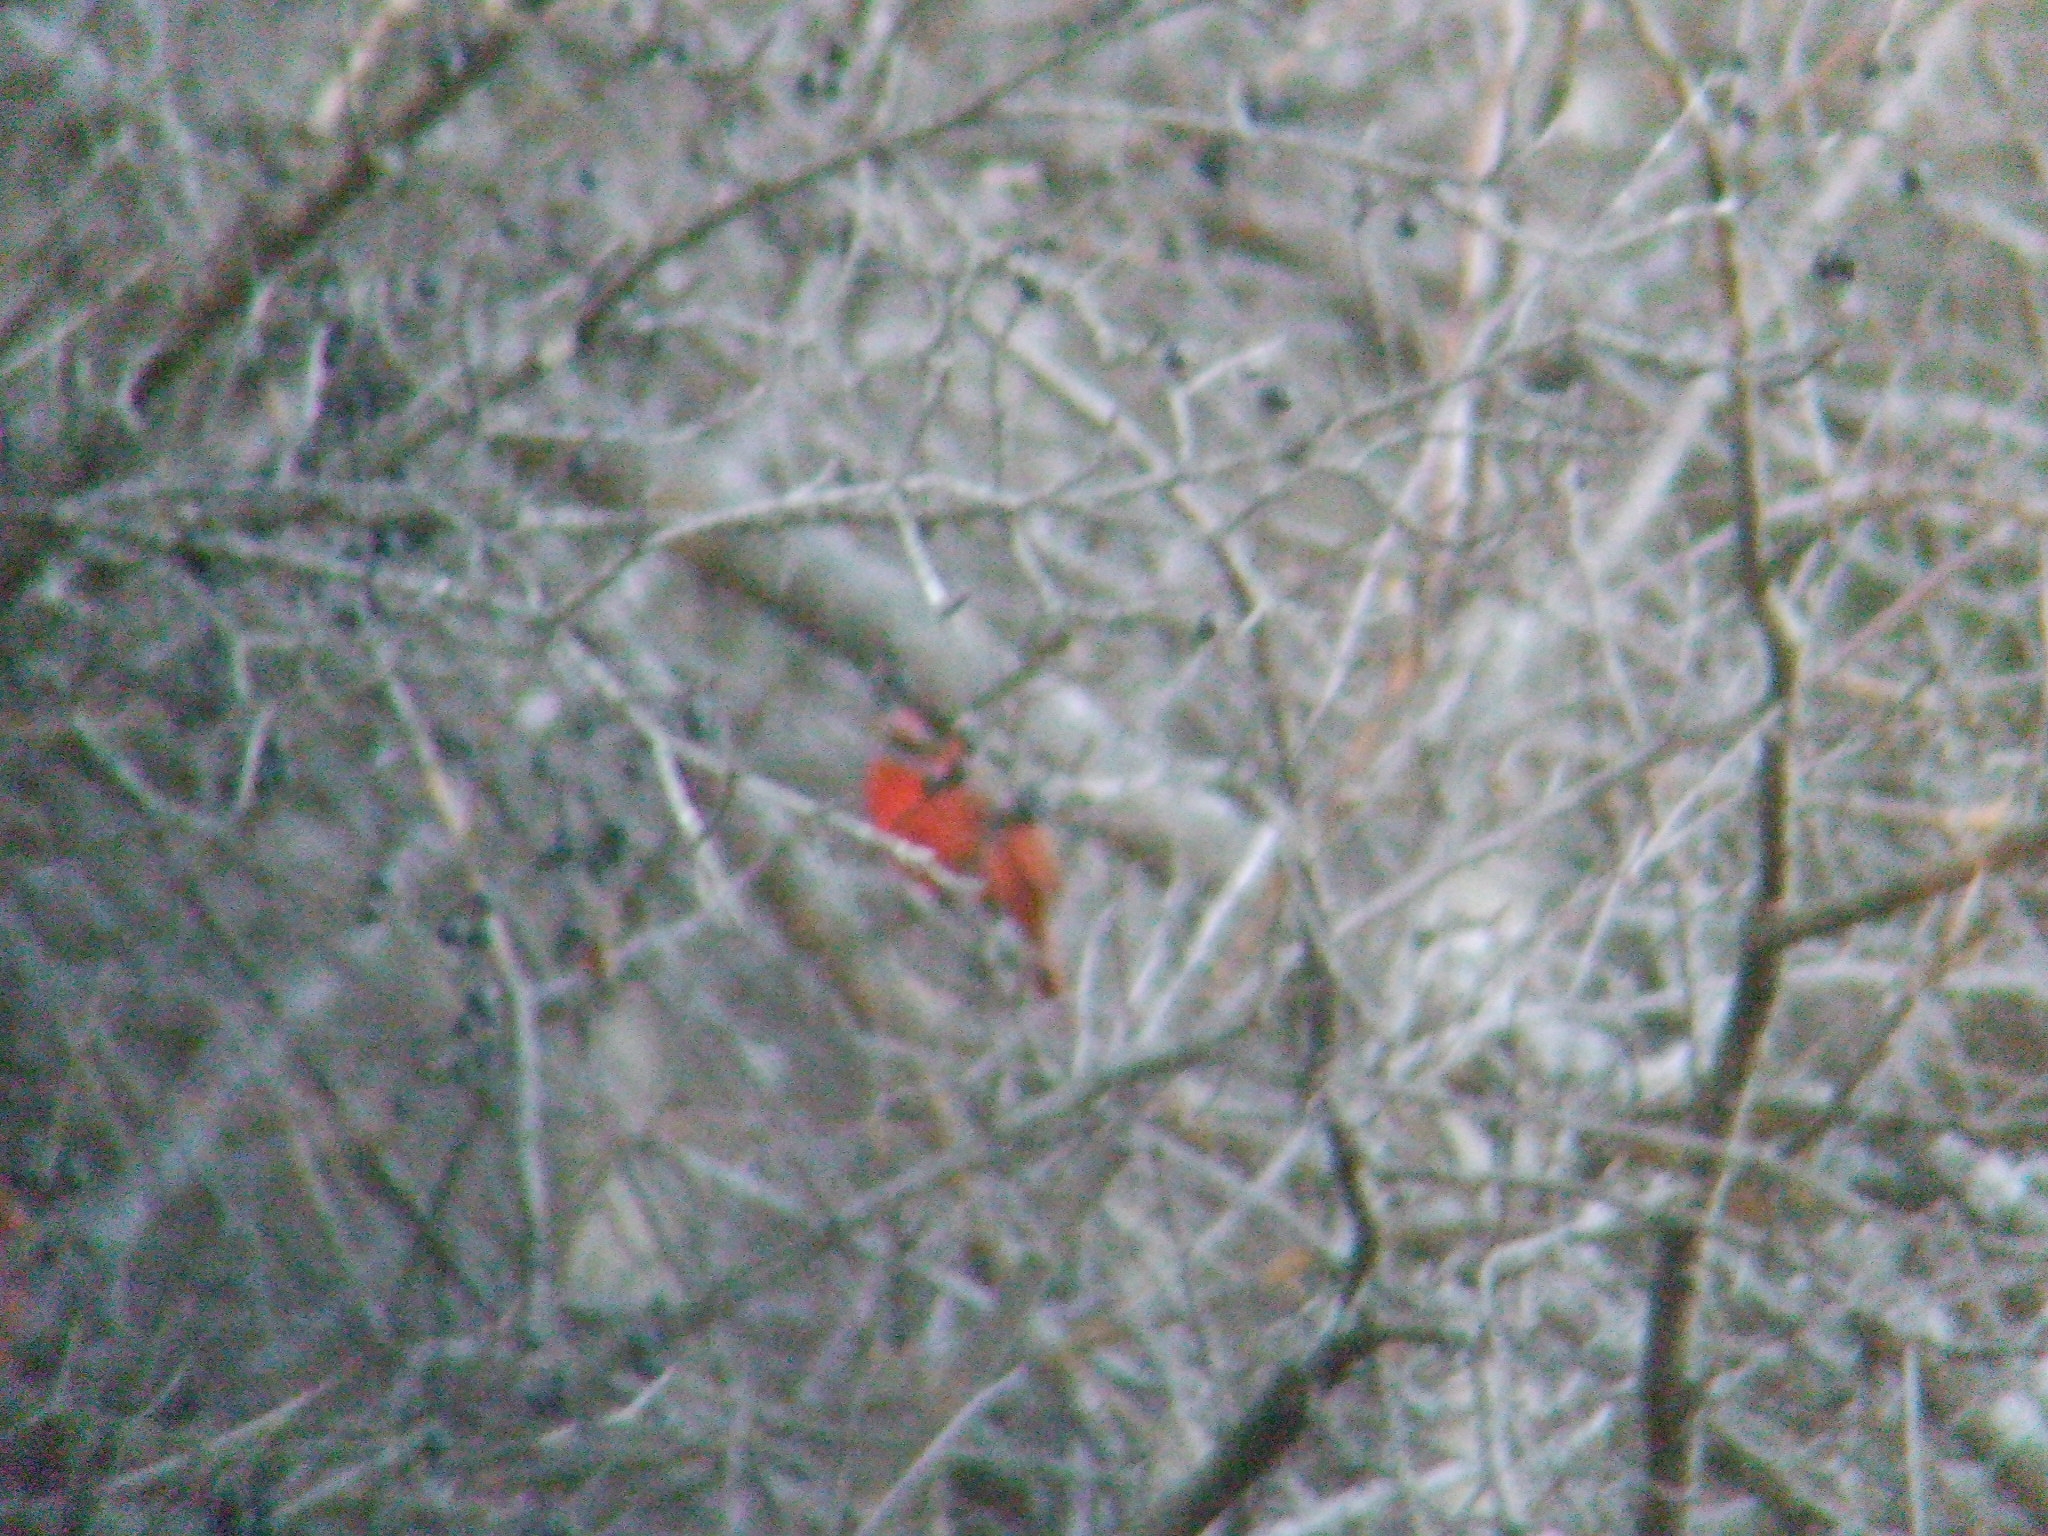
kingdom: Animalia
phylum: Chordata
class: Aves
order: Passeriformes
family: Cardinalidae
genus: Cardinalis
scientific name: Cardinalis cardinalis
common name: Northern cardinal
